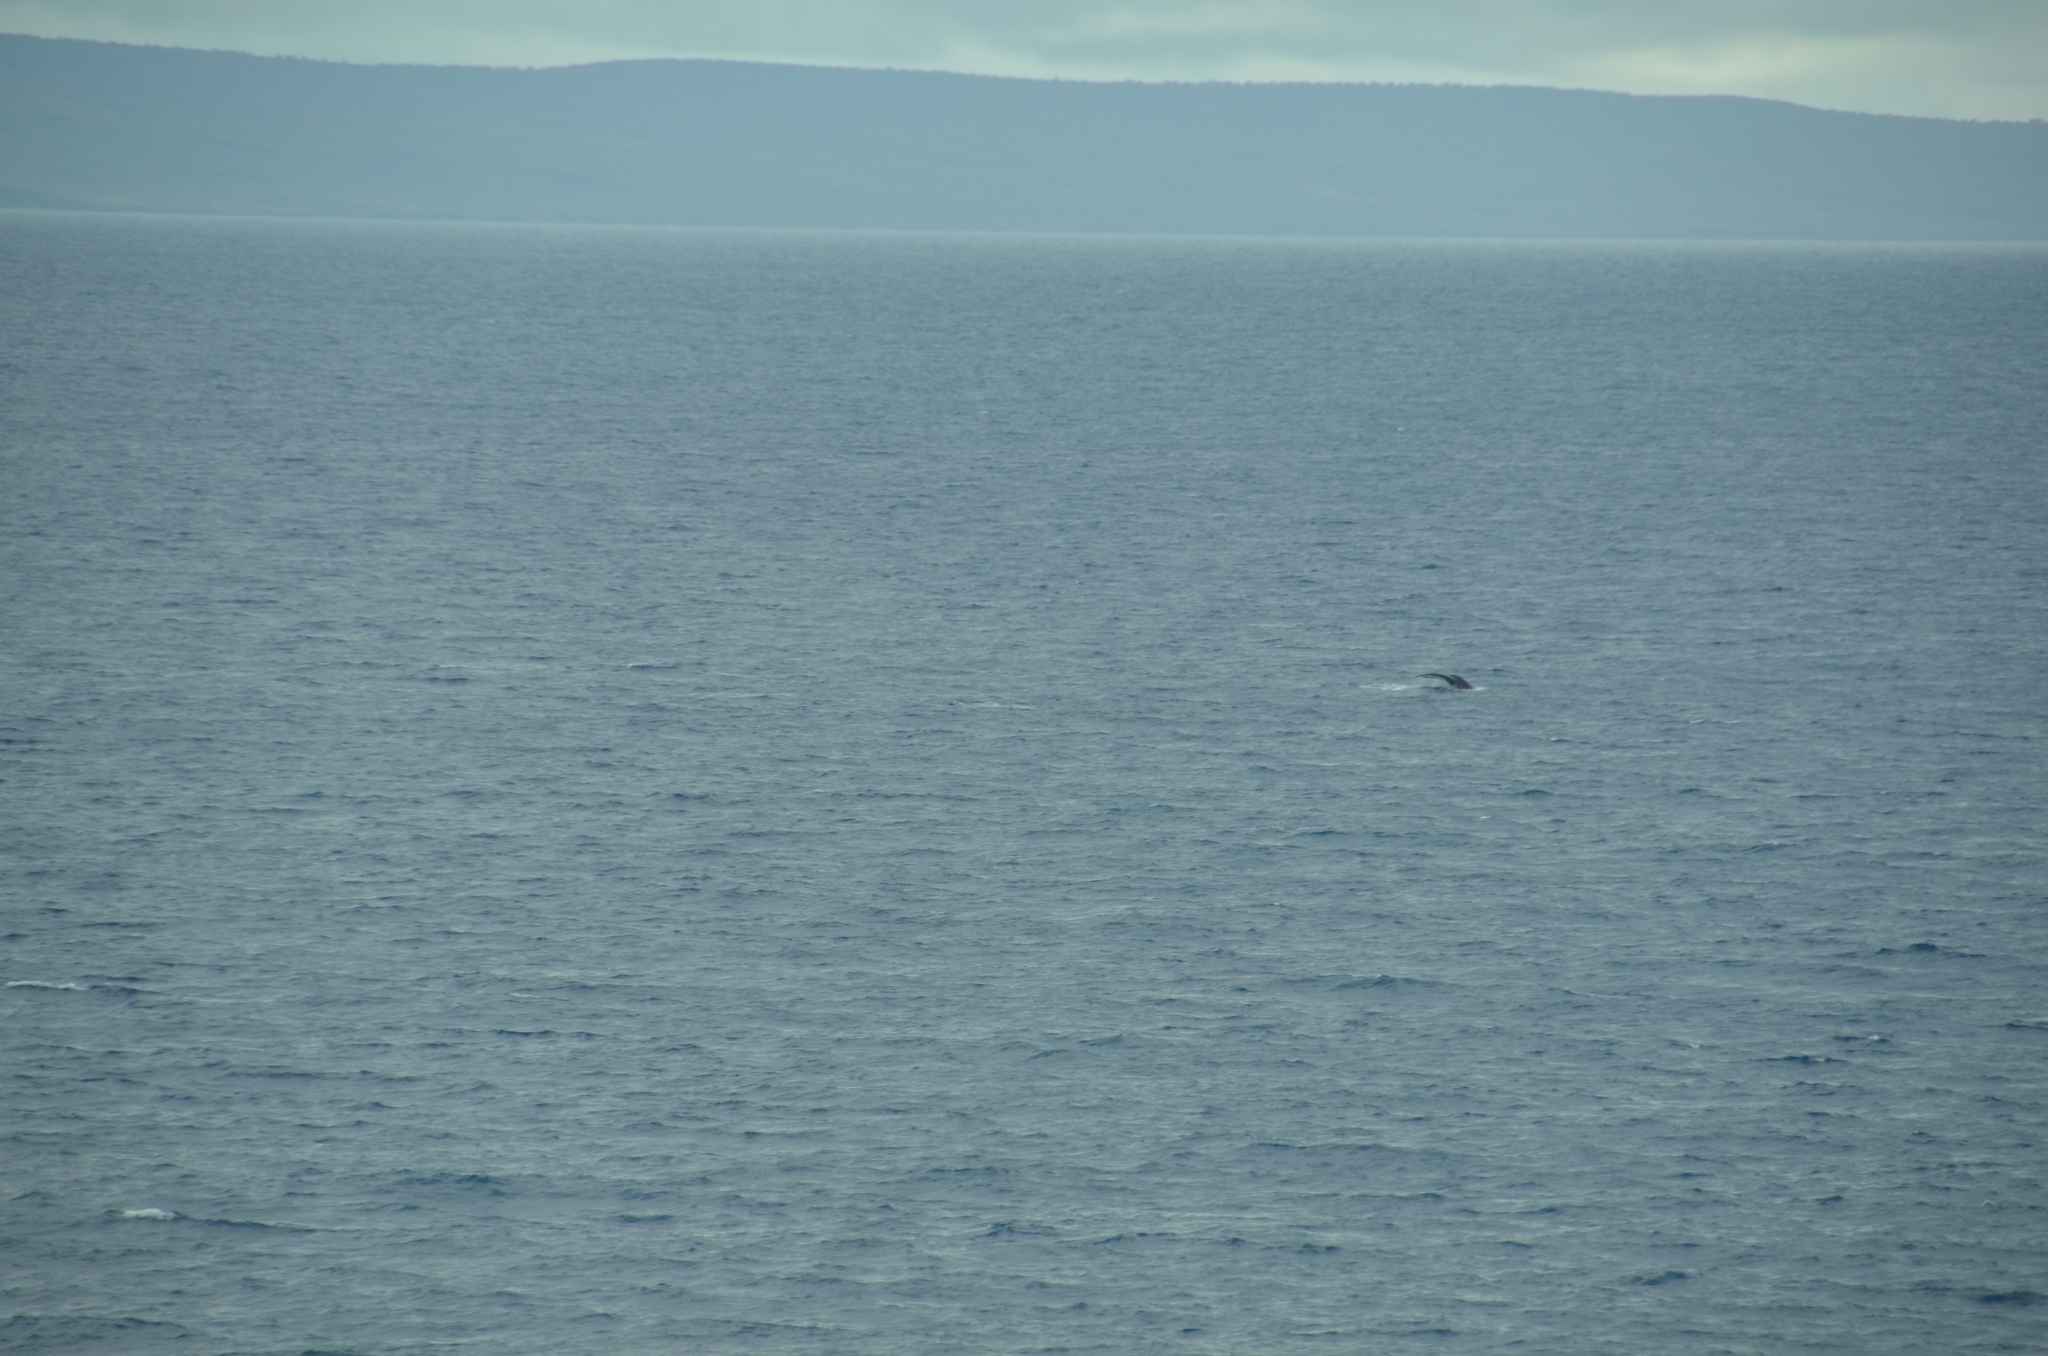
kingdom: Animalia
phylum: Chordata
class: Mammalia
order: Cetacea
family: Balaenopteridae
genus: Megaptera
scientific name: Megaptera novaeangliae
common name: Humpback whale
